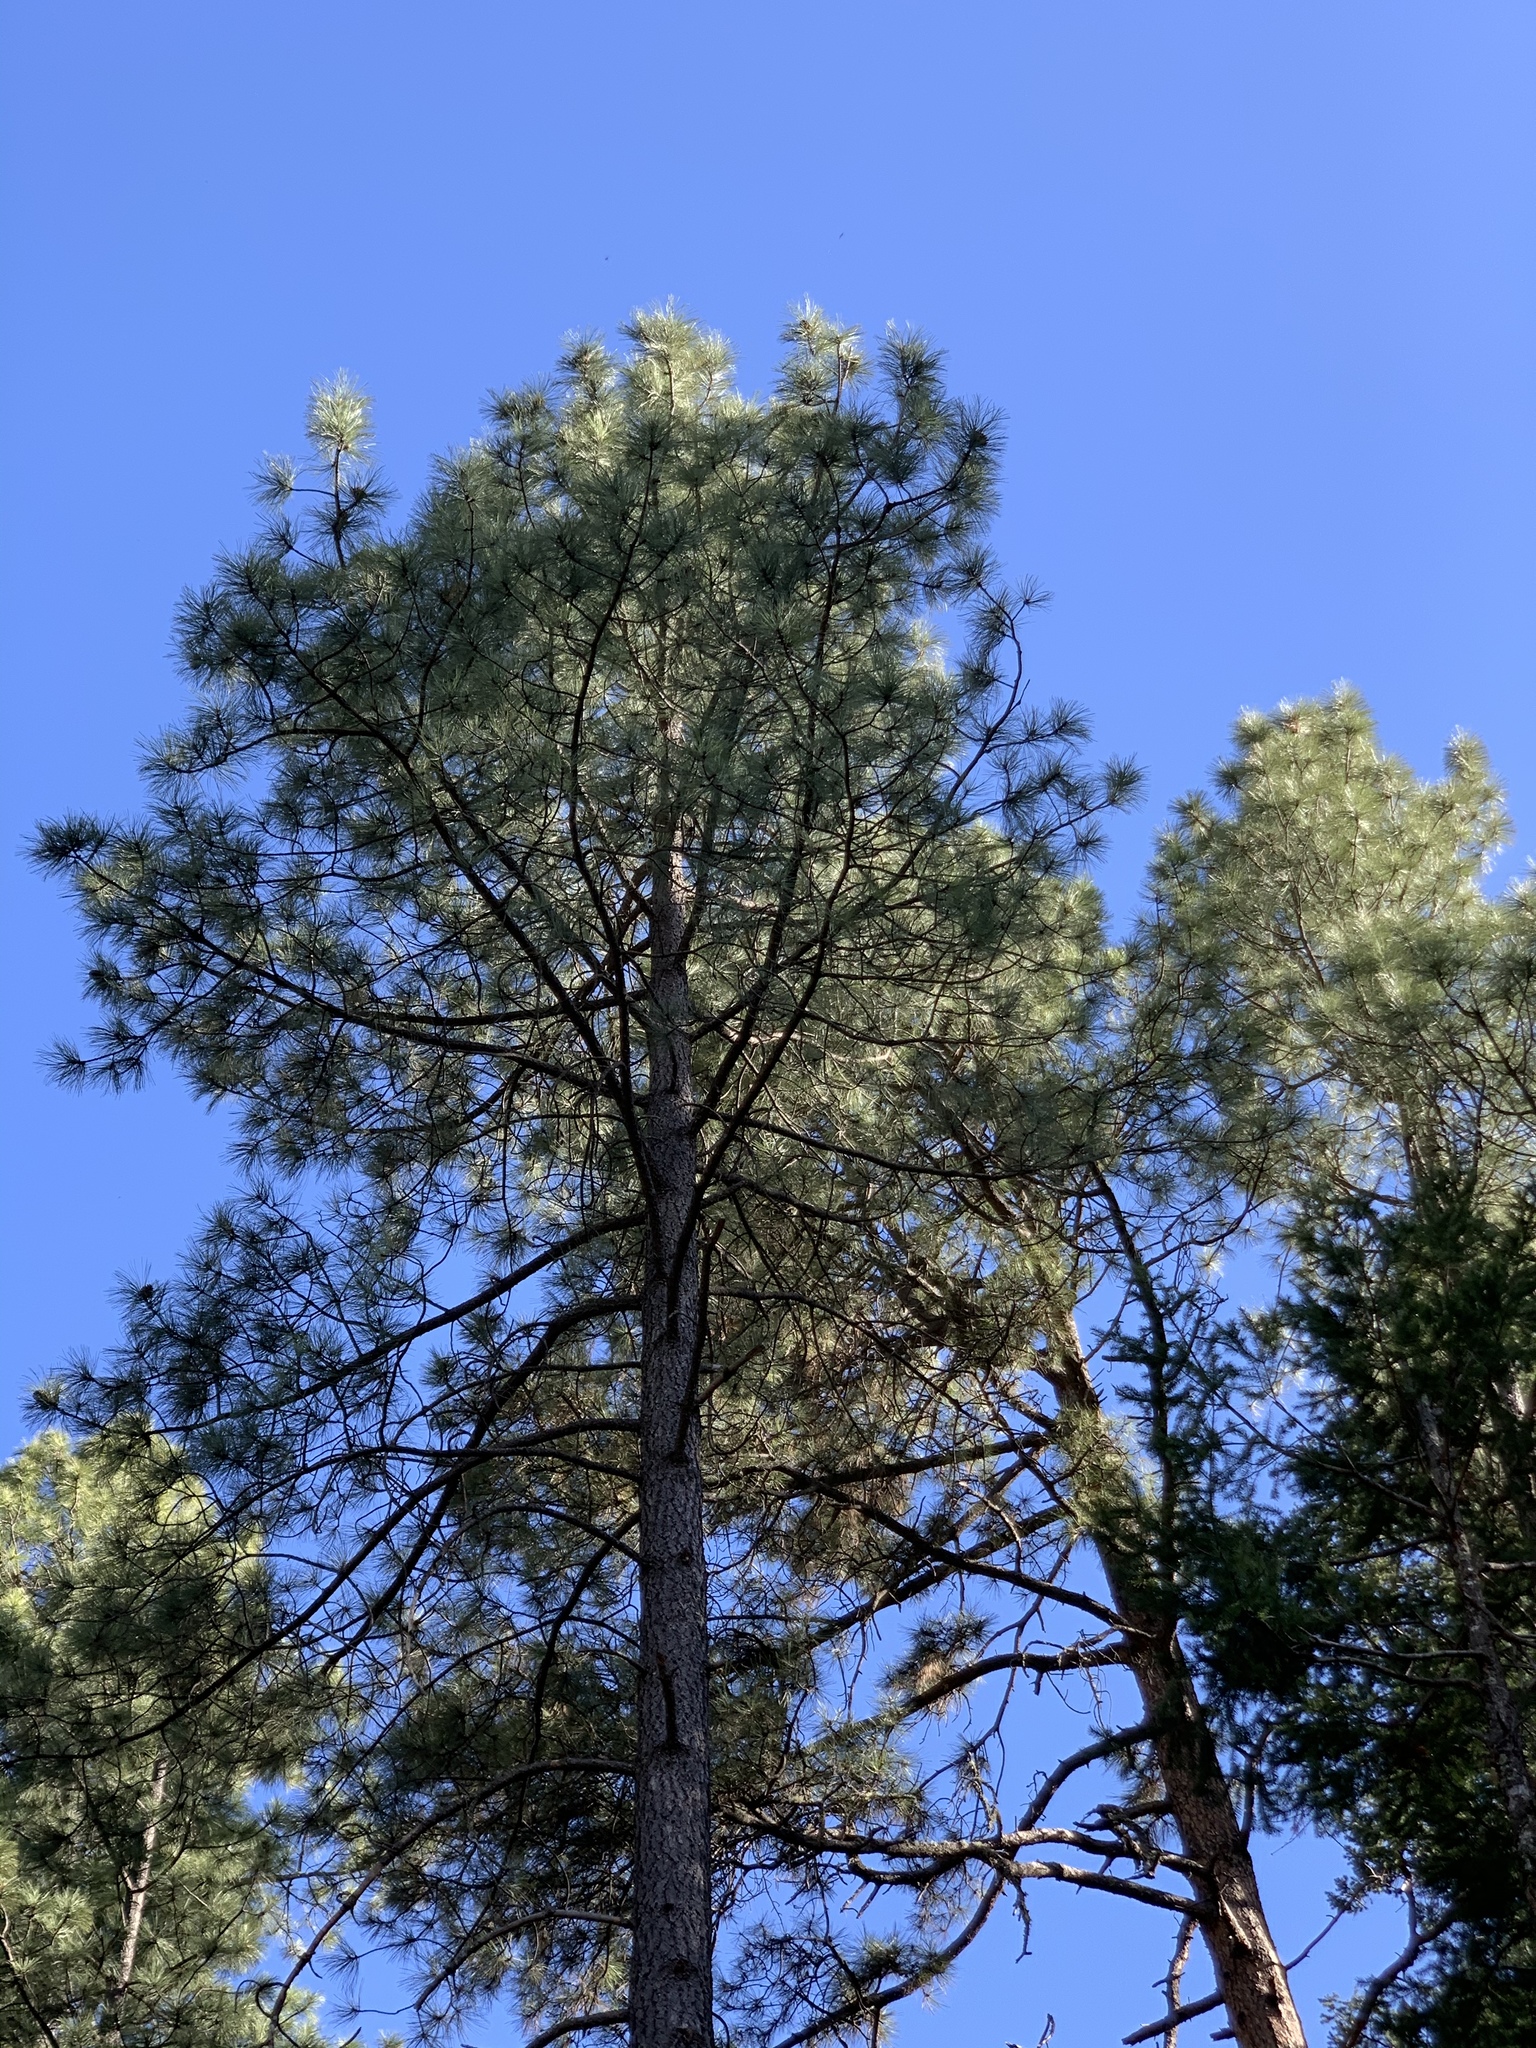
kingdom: Plantae
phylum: Tracheophyta
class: Pinopsida
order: Pinales
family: Pinaceae
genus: Pinus
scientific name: Pinus ponderosa
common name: Western yellow-pine
